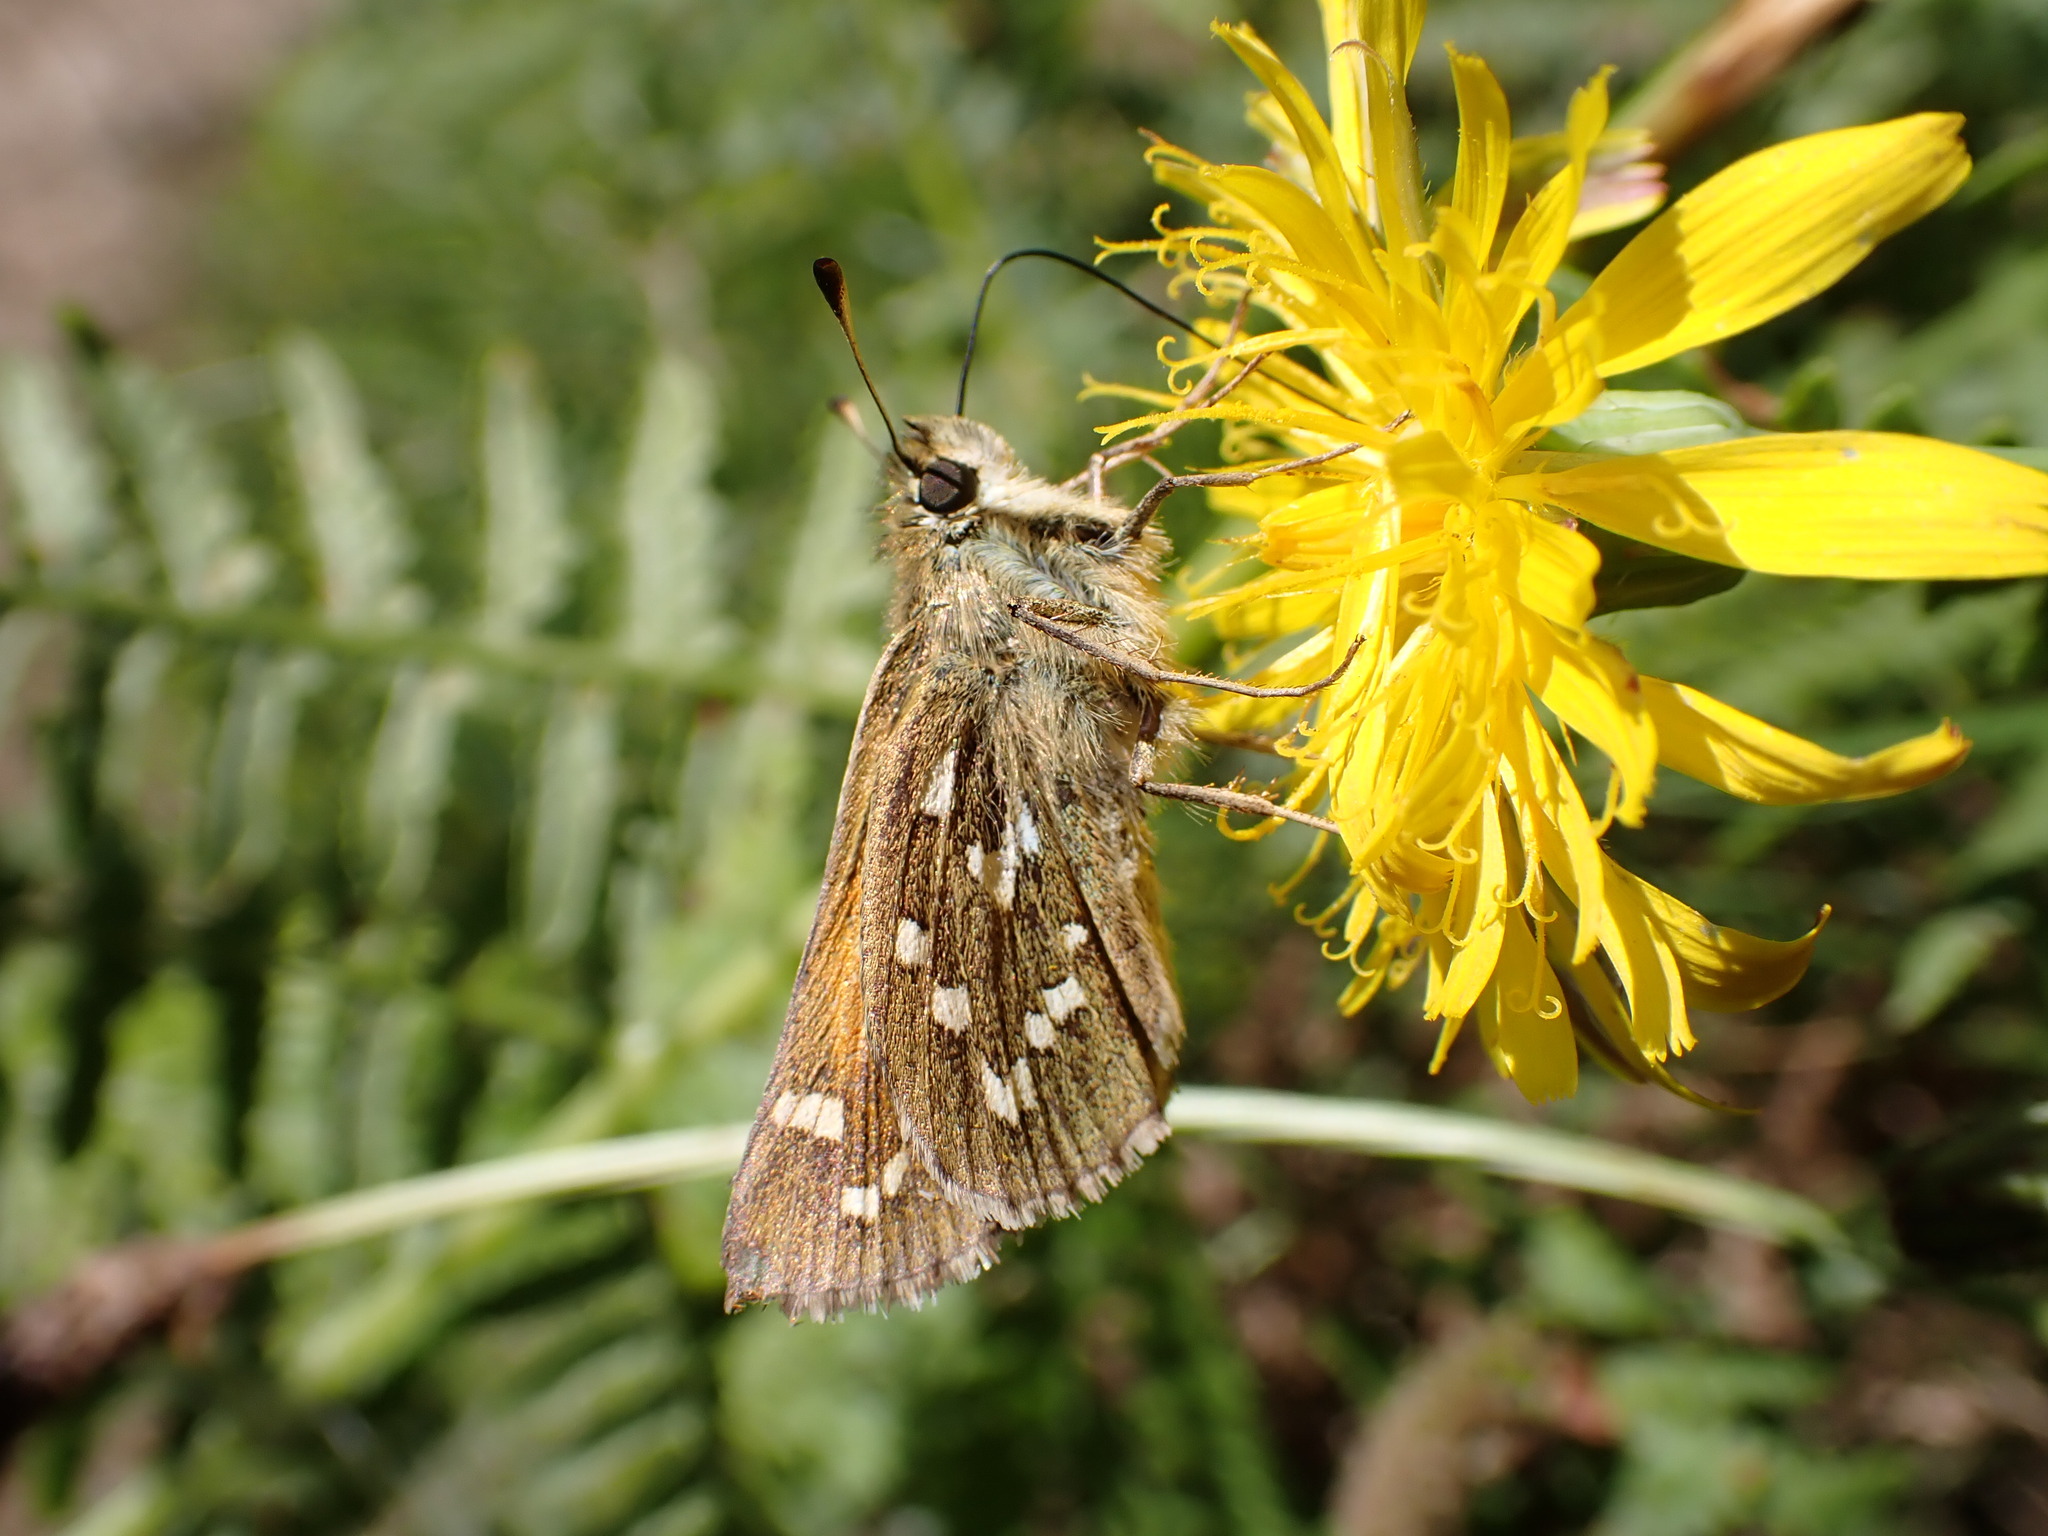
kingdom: Animalia
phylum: Arthropoda
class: Insecta
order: Lepidoptera
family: Hesperiidae
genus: Hesperia
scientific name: Hesperia comma
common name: Common branded skipper
